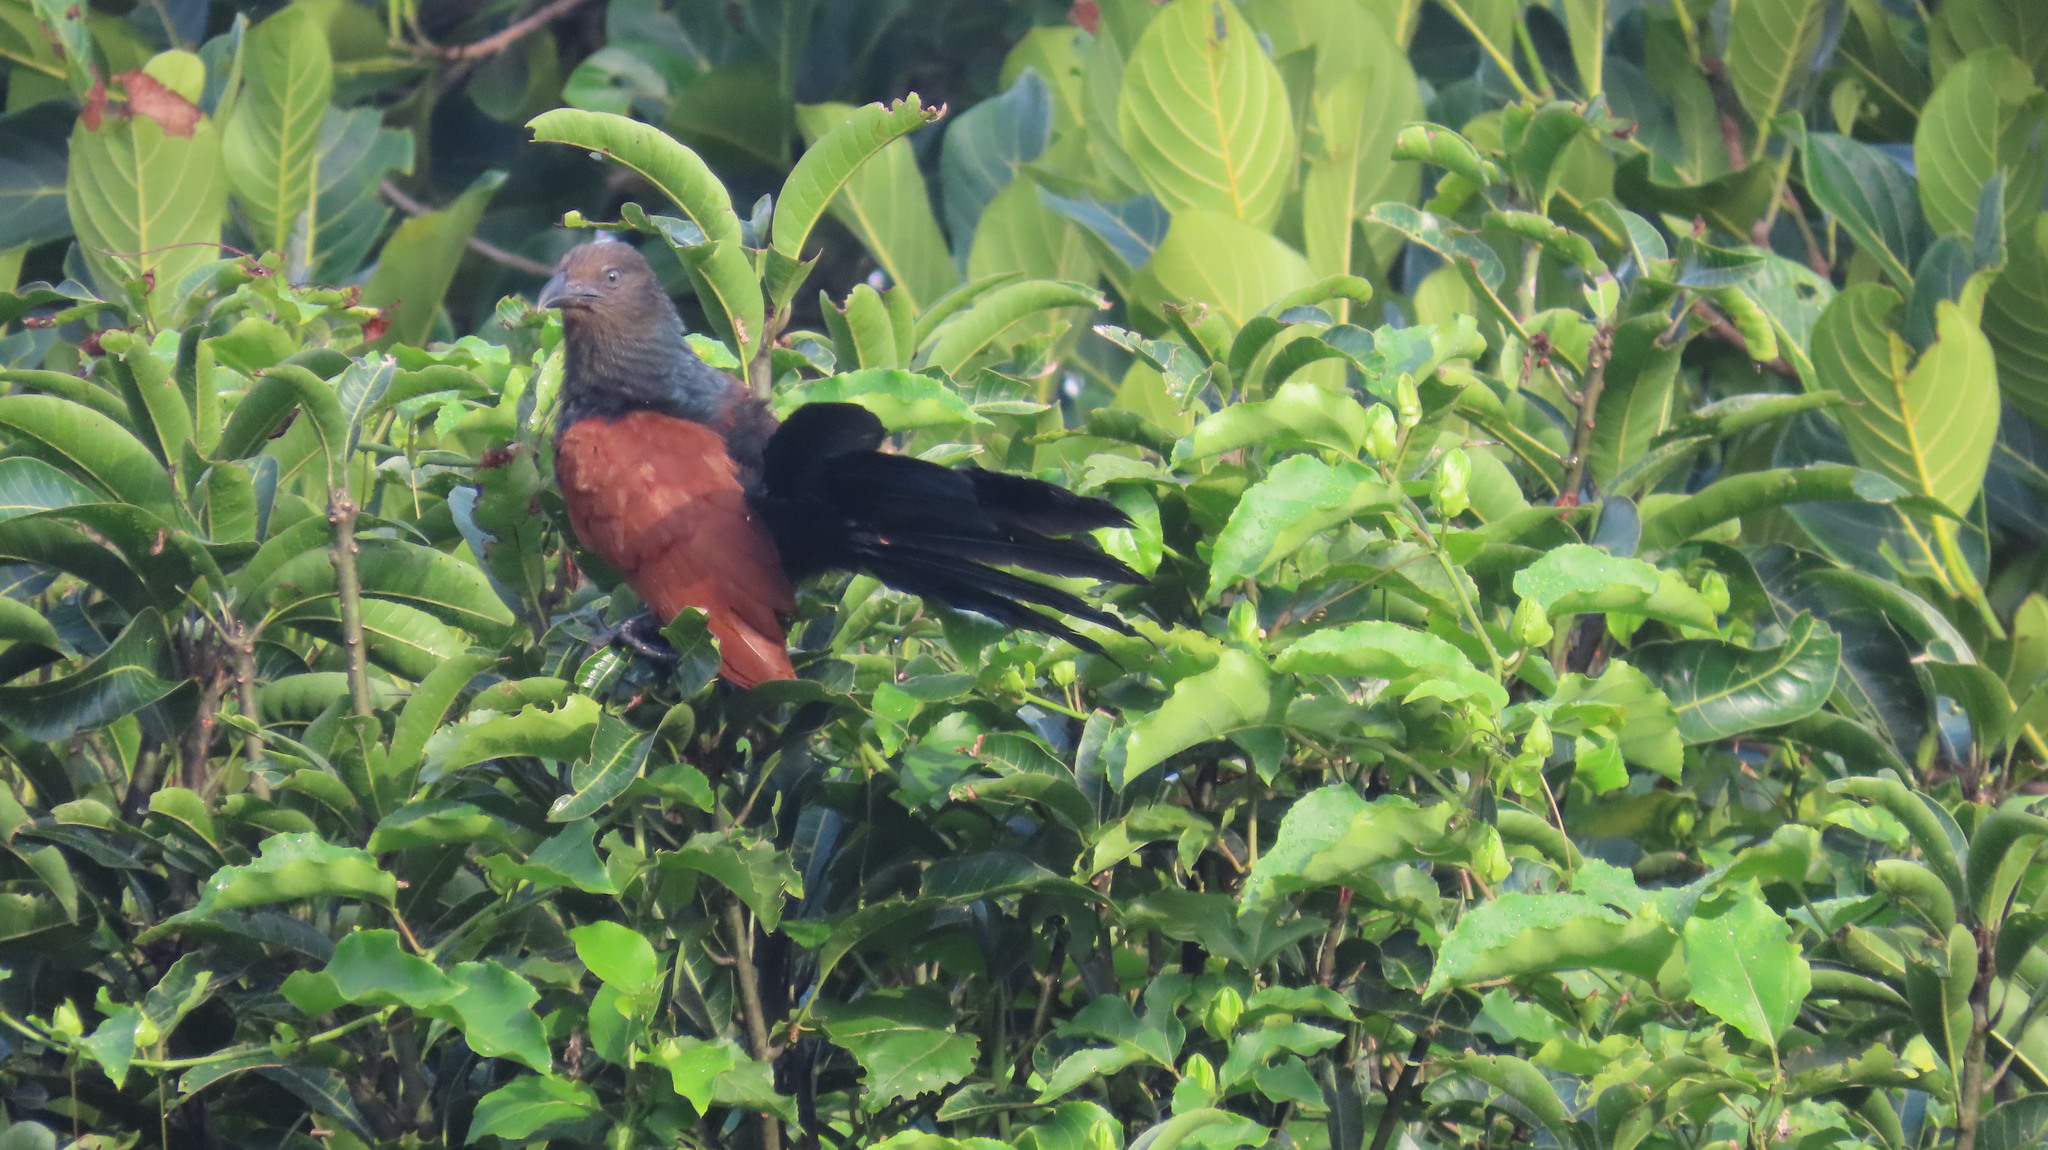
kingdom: Animalia
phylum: Chordata
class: Aves
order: Cuculiformes
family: Cuculidae
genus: Centropus
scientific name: Centropus sinensis
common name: Greater coucal
